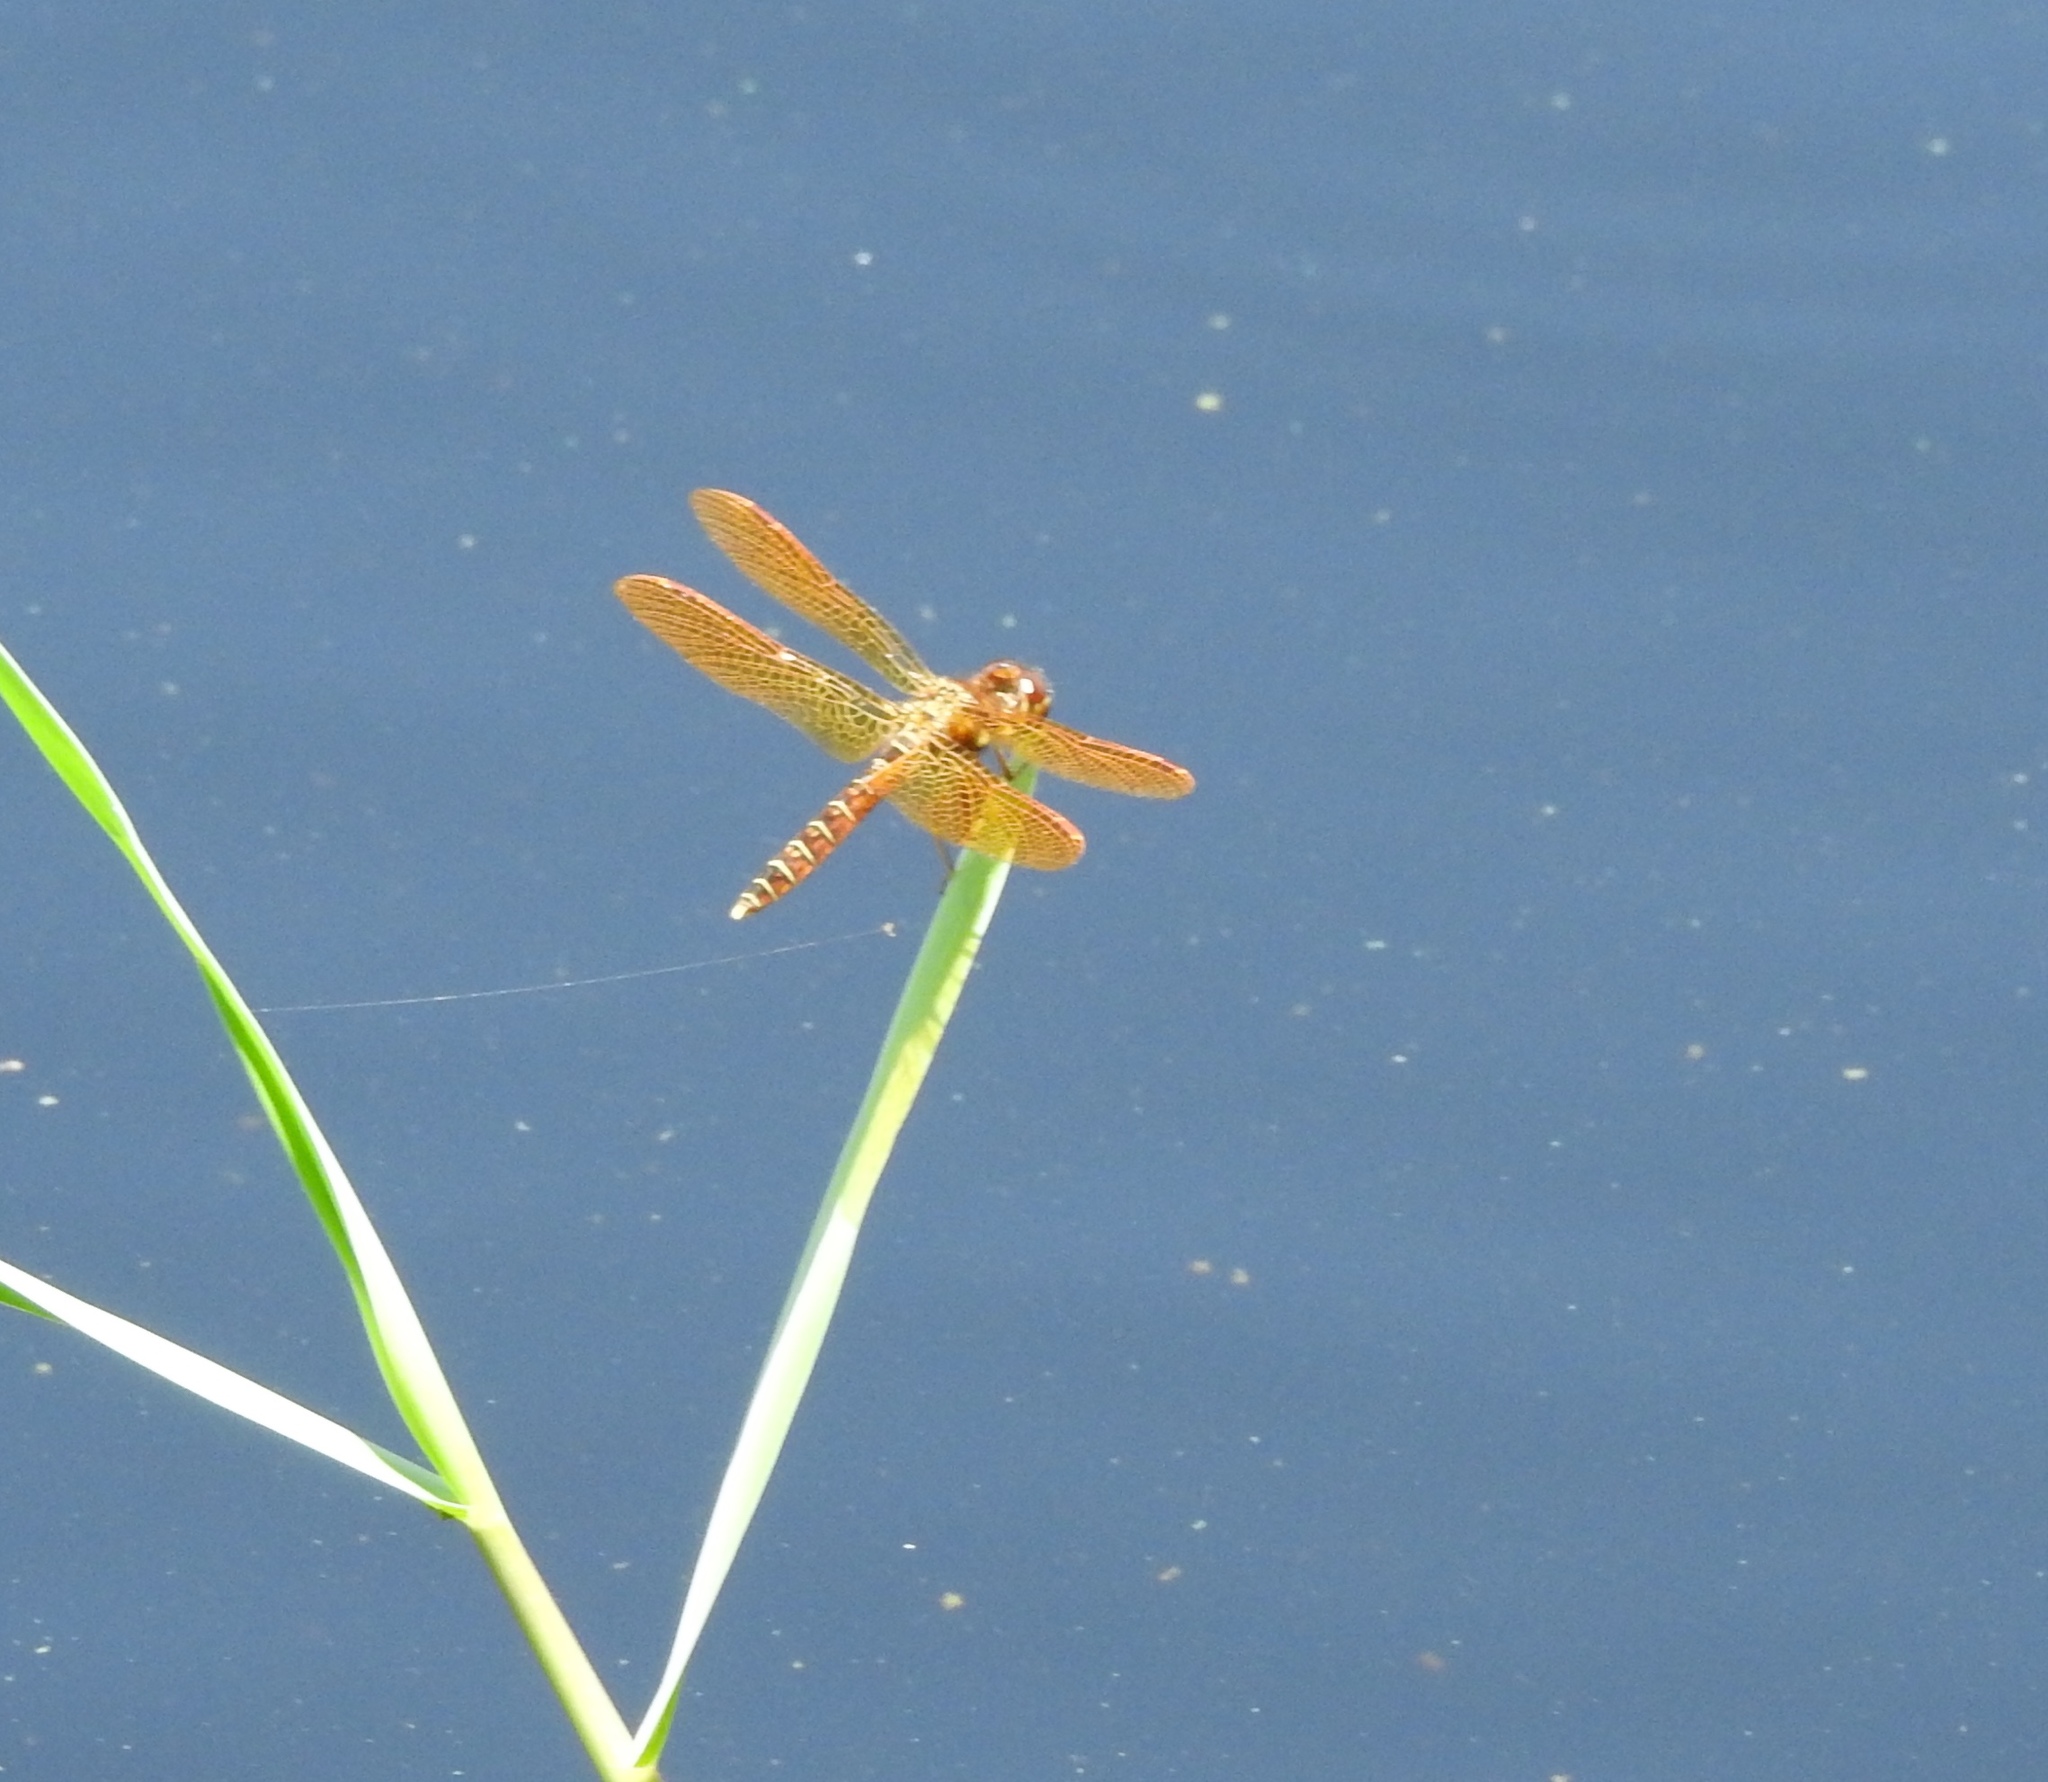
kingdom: Animalia
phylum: Arthropoda
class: Insecta
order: Odonata
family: Libellulidae
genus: Perithemis
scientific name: Perithemis tenera
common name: Eastern amberwing
